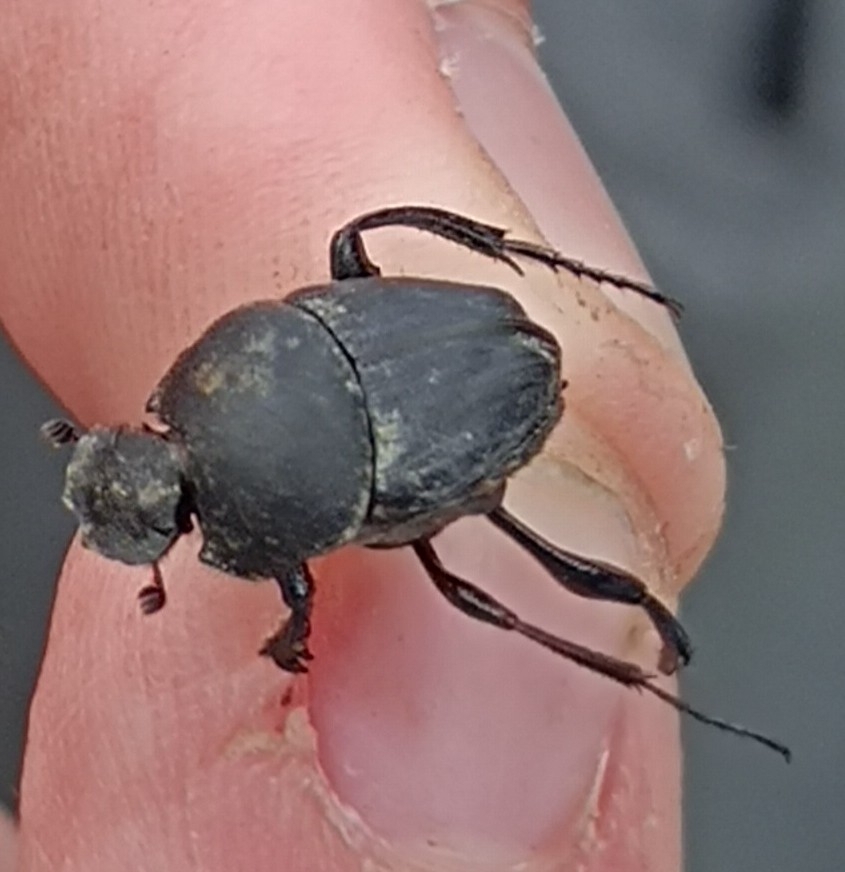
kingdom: Animalia
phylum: Arthropoda
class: Insecta
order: Coleoptera
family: Scarabaeidae
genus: Sisyphus
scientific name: Sisyphus schaefferi
